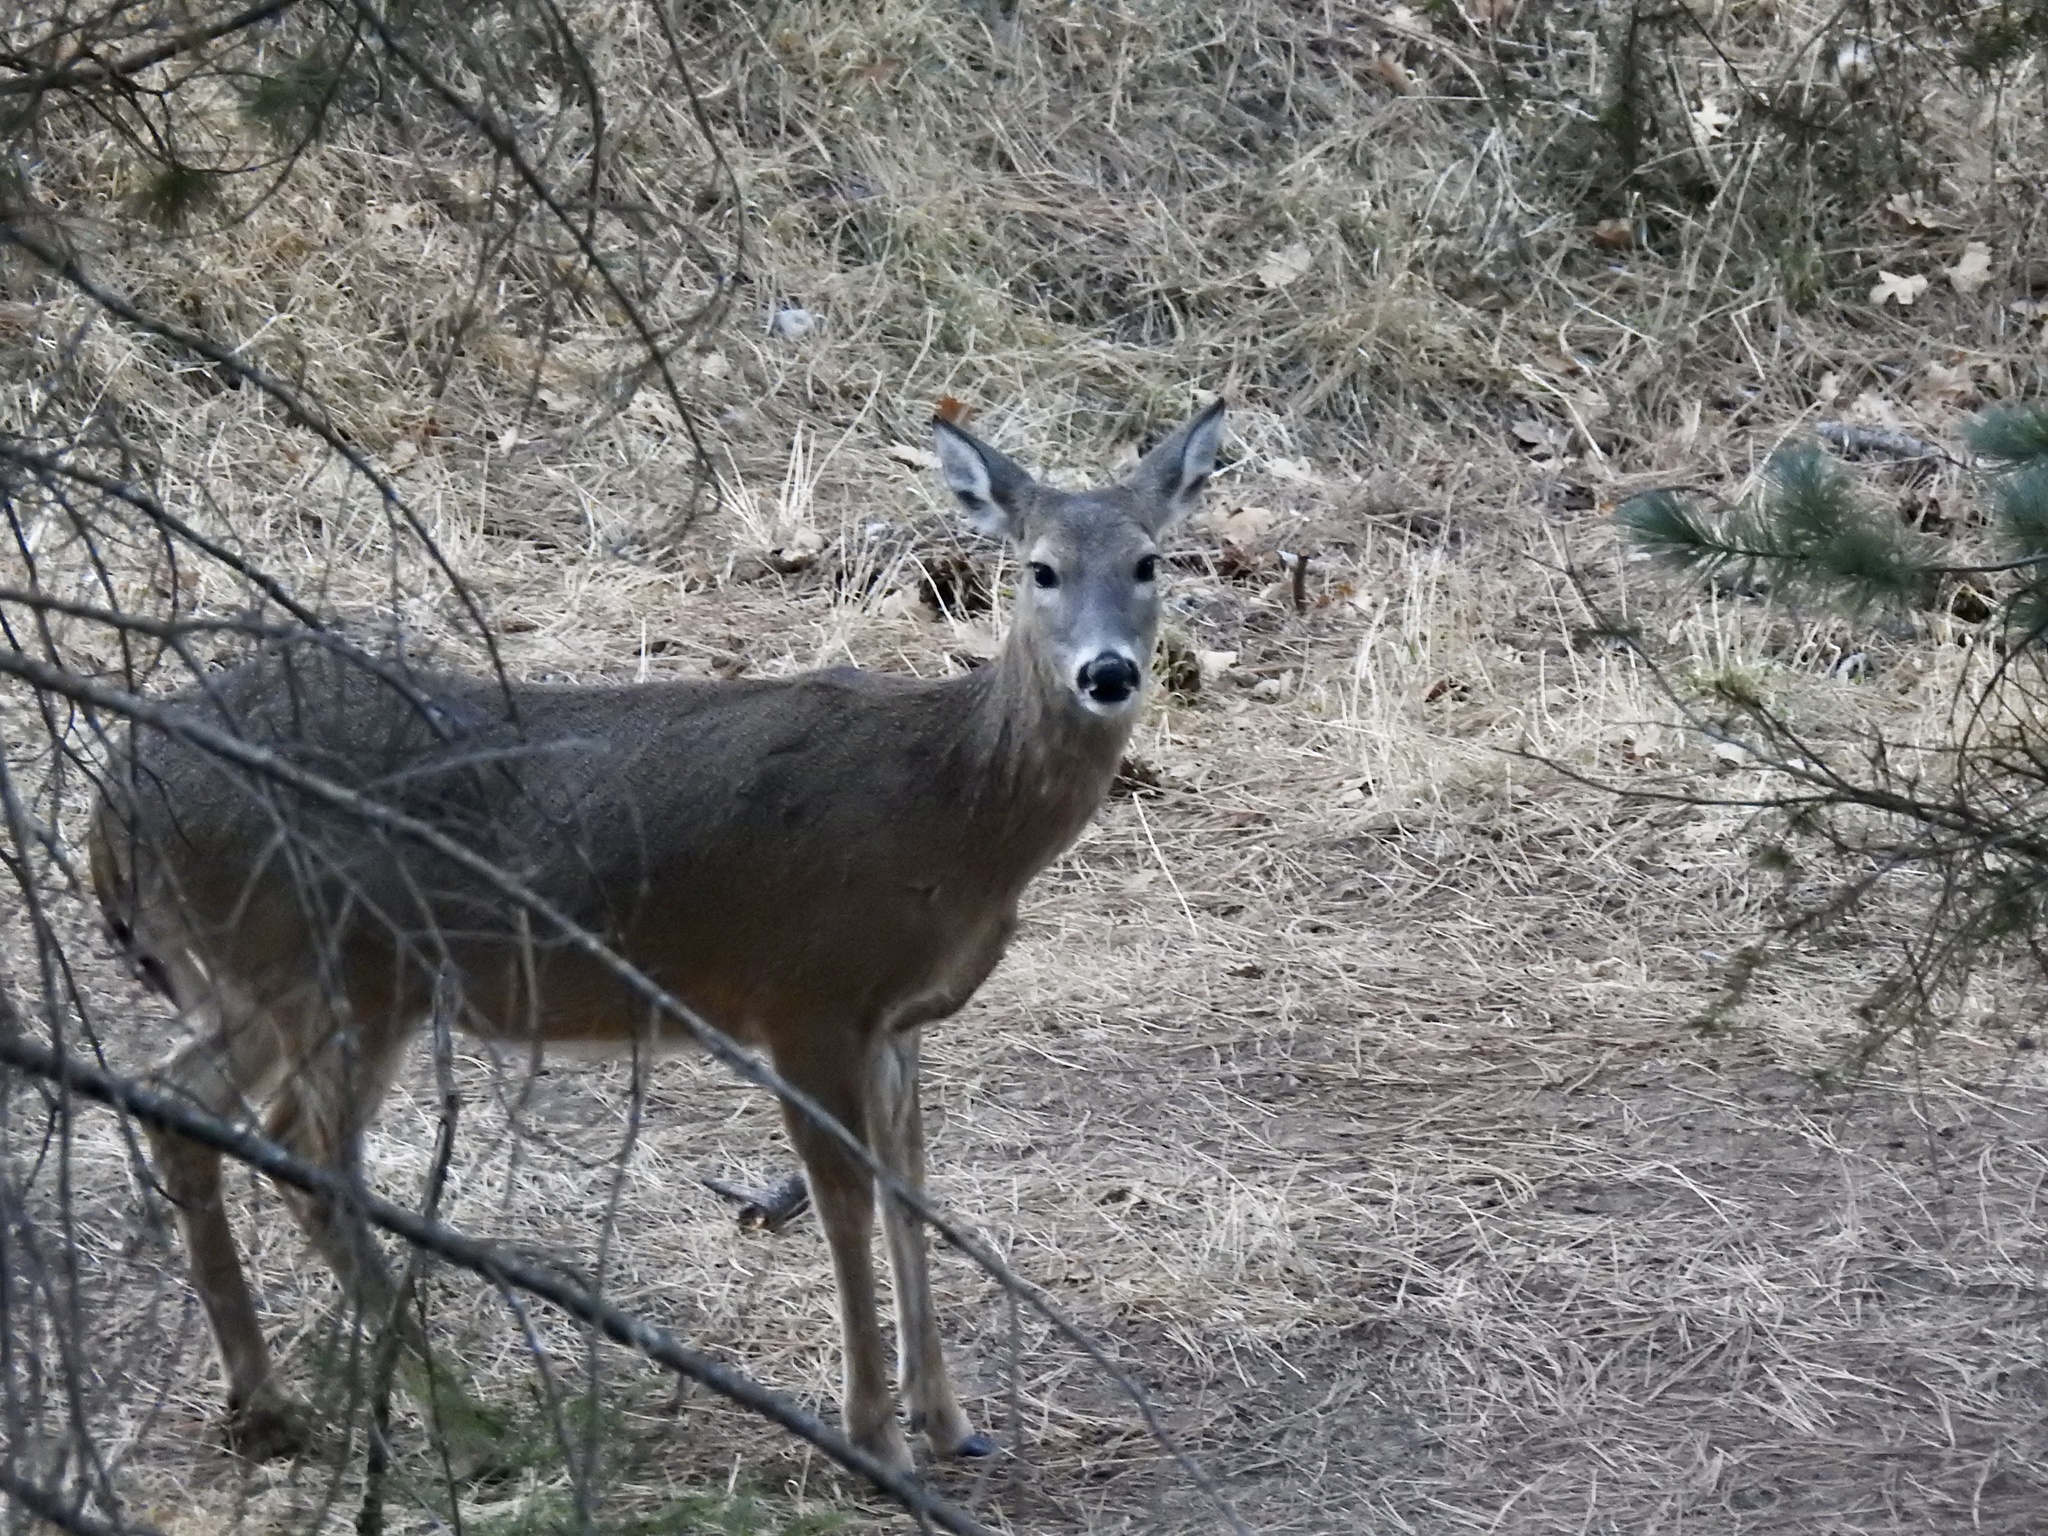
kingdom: Animalia
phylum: Chordata
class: Mammalia
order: Artiodactyla
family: Cervidae
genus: Odocoileus
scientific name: Odocoileus virginianus
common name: White-tailed deer
